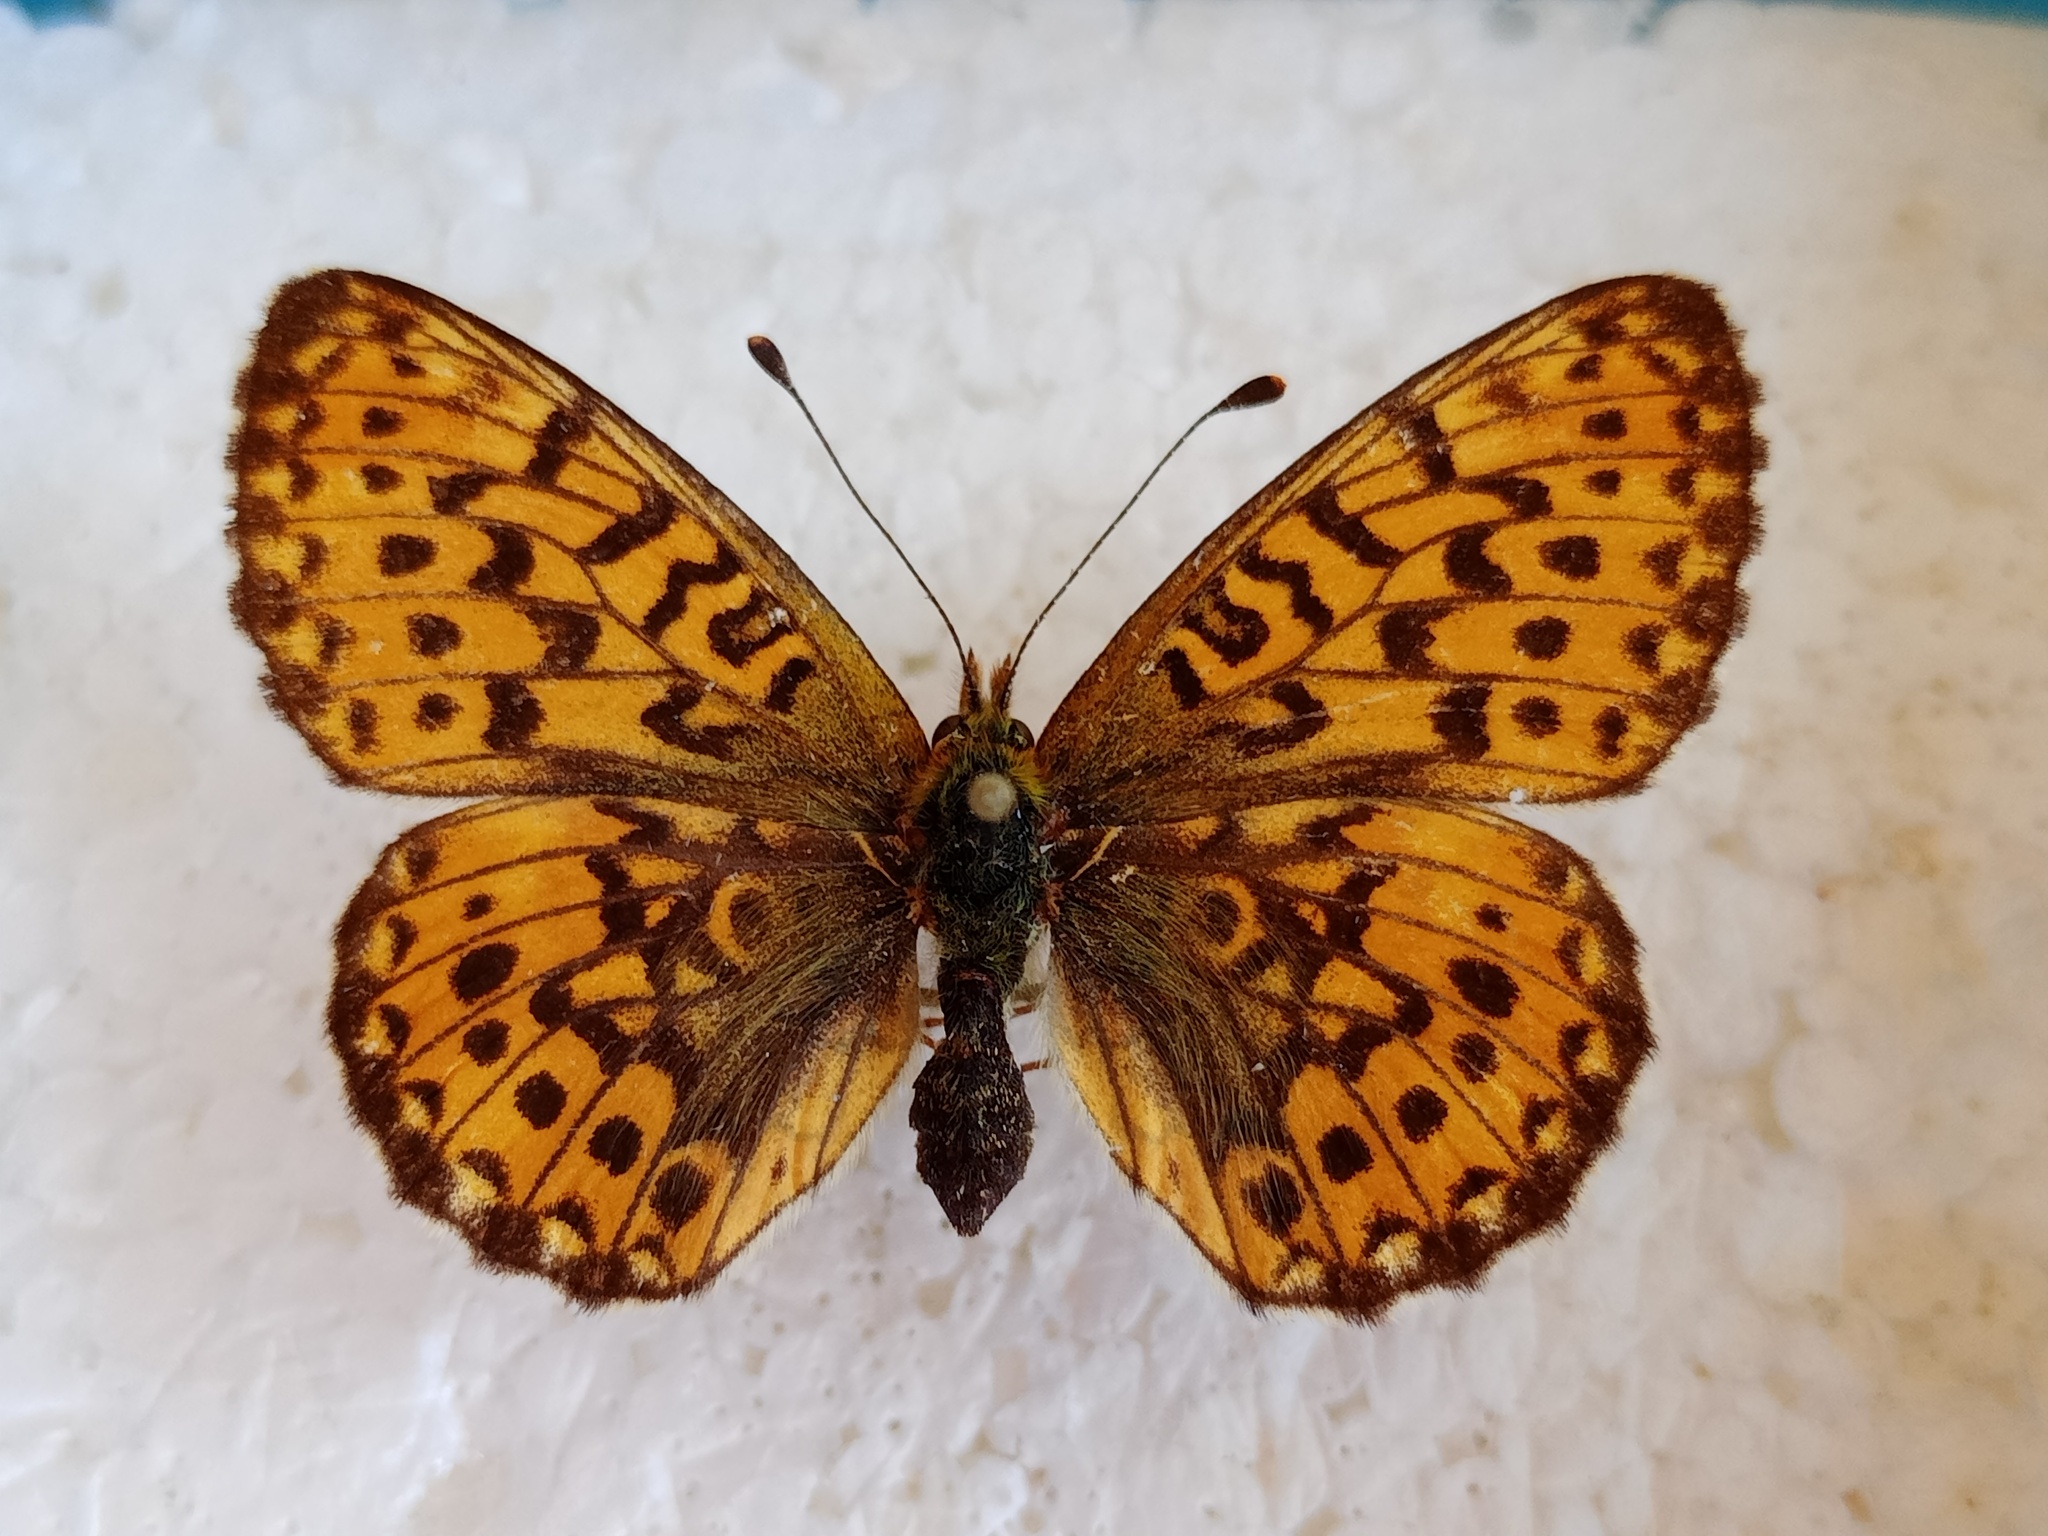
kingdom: Animalia
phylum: Arthropoda
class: Insecta
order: Lepidoptera
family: Nymphalidae
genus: Clossiana
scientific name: Clossiana euphrosyne
